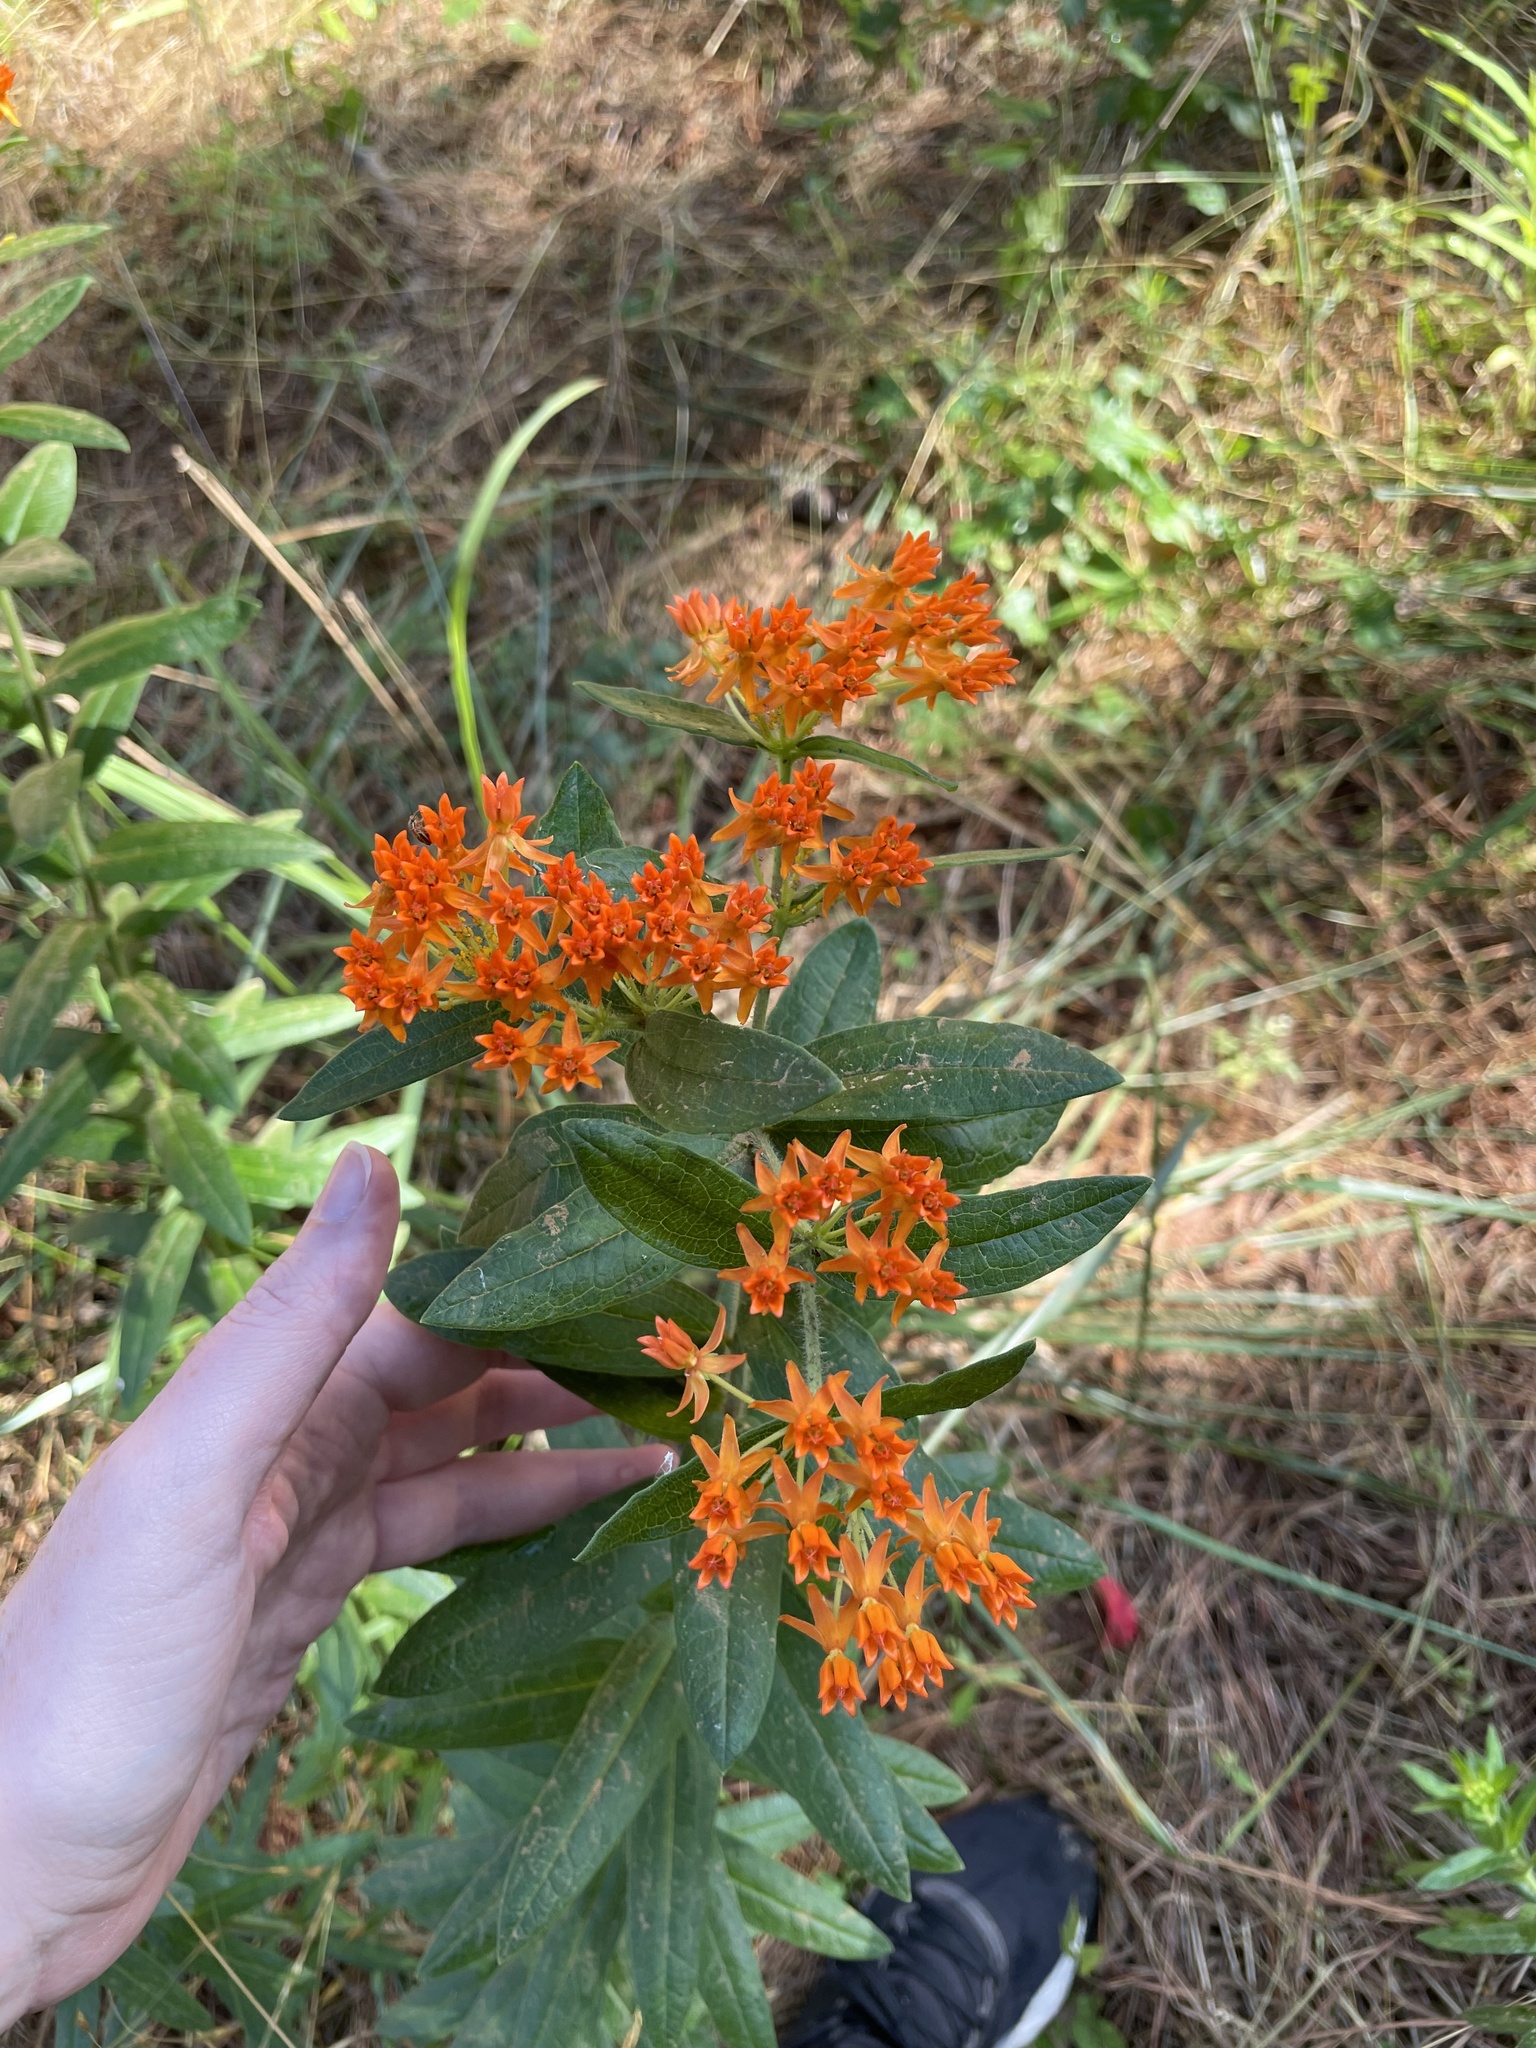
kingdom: Plantae
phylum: Tracheophyta
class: Magnoliopsida
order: Gentianales
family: Apocynaceae
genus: Asclepias
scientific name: Asclepias tuberosa
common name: Butterfly milkweed
